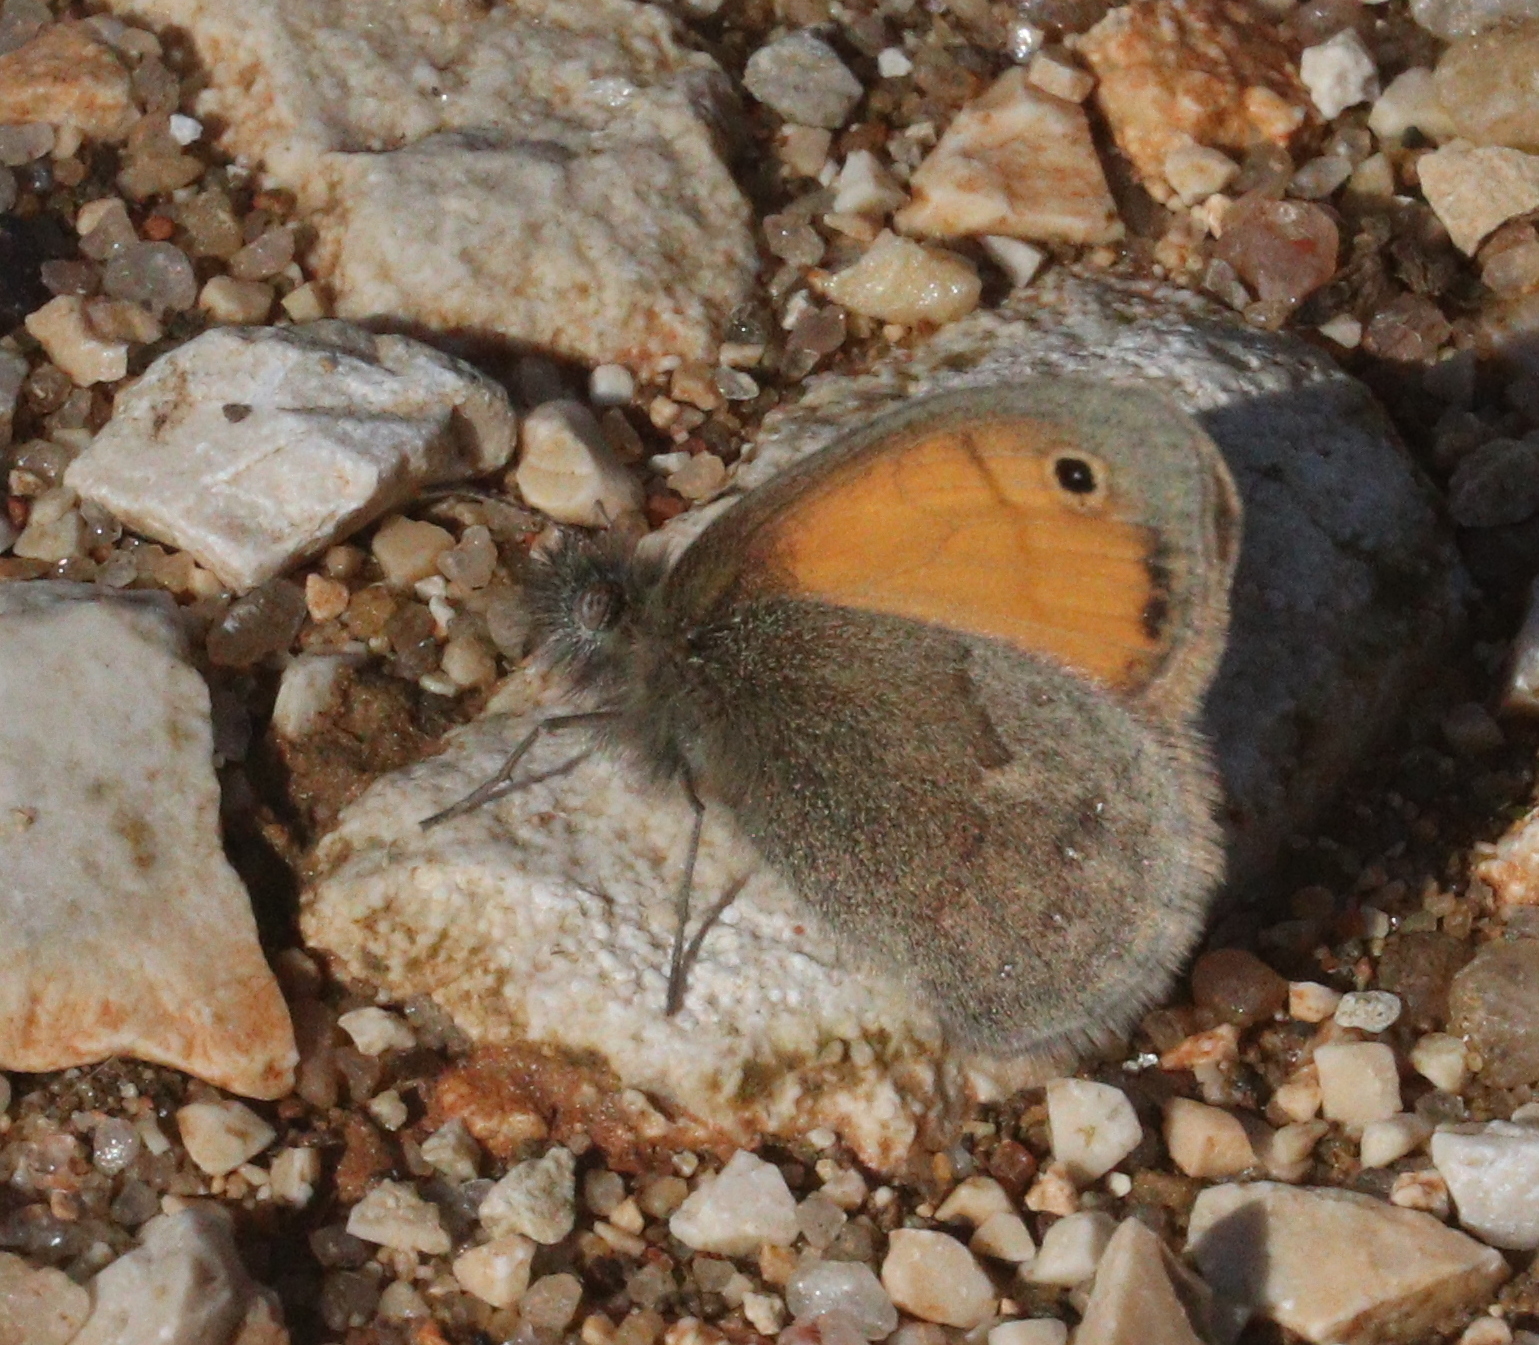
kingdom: Animalia
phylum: Arthropoda
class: Insecta
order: Lepidoptera
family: Nymphalidae
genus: Coenonympha
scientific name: Coenonympha pamphilus
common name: Small heath
